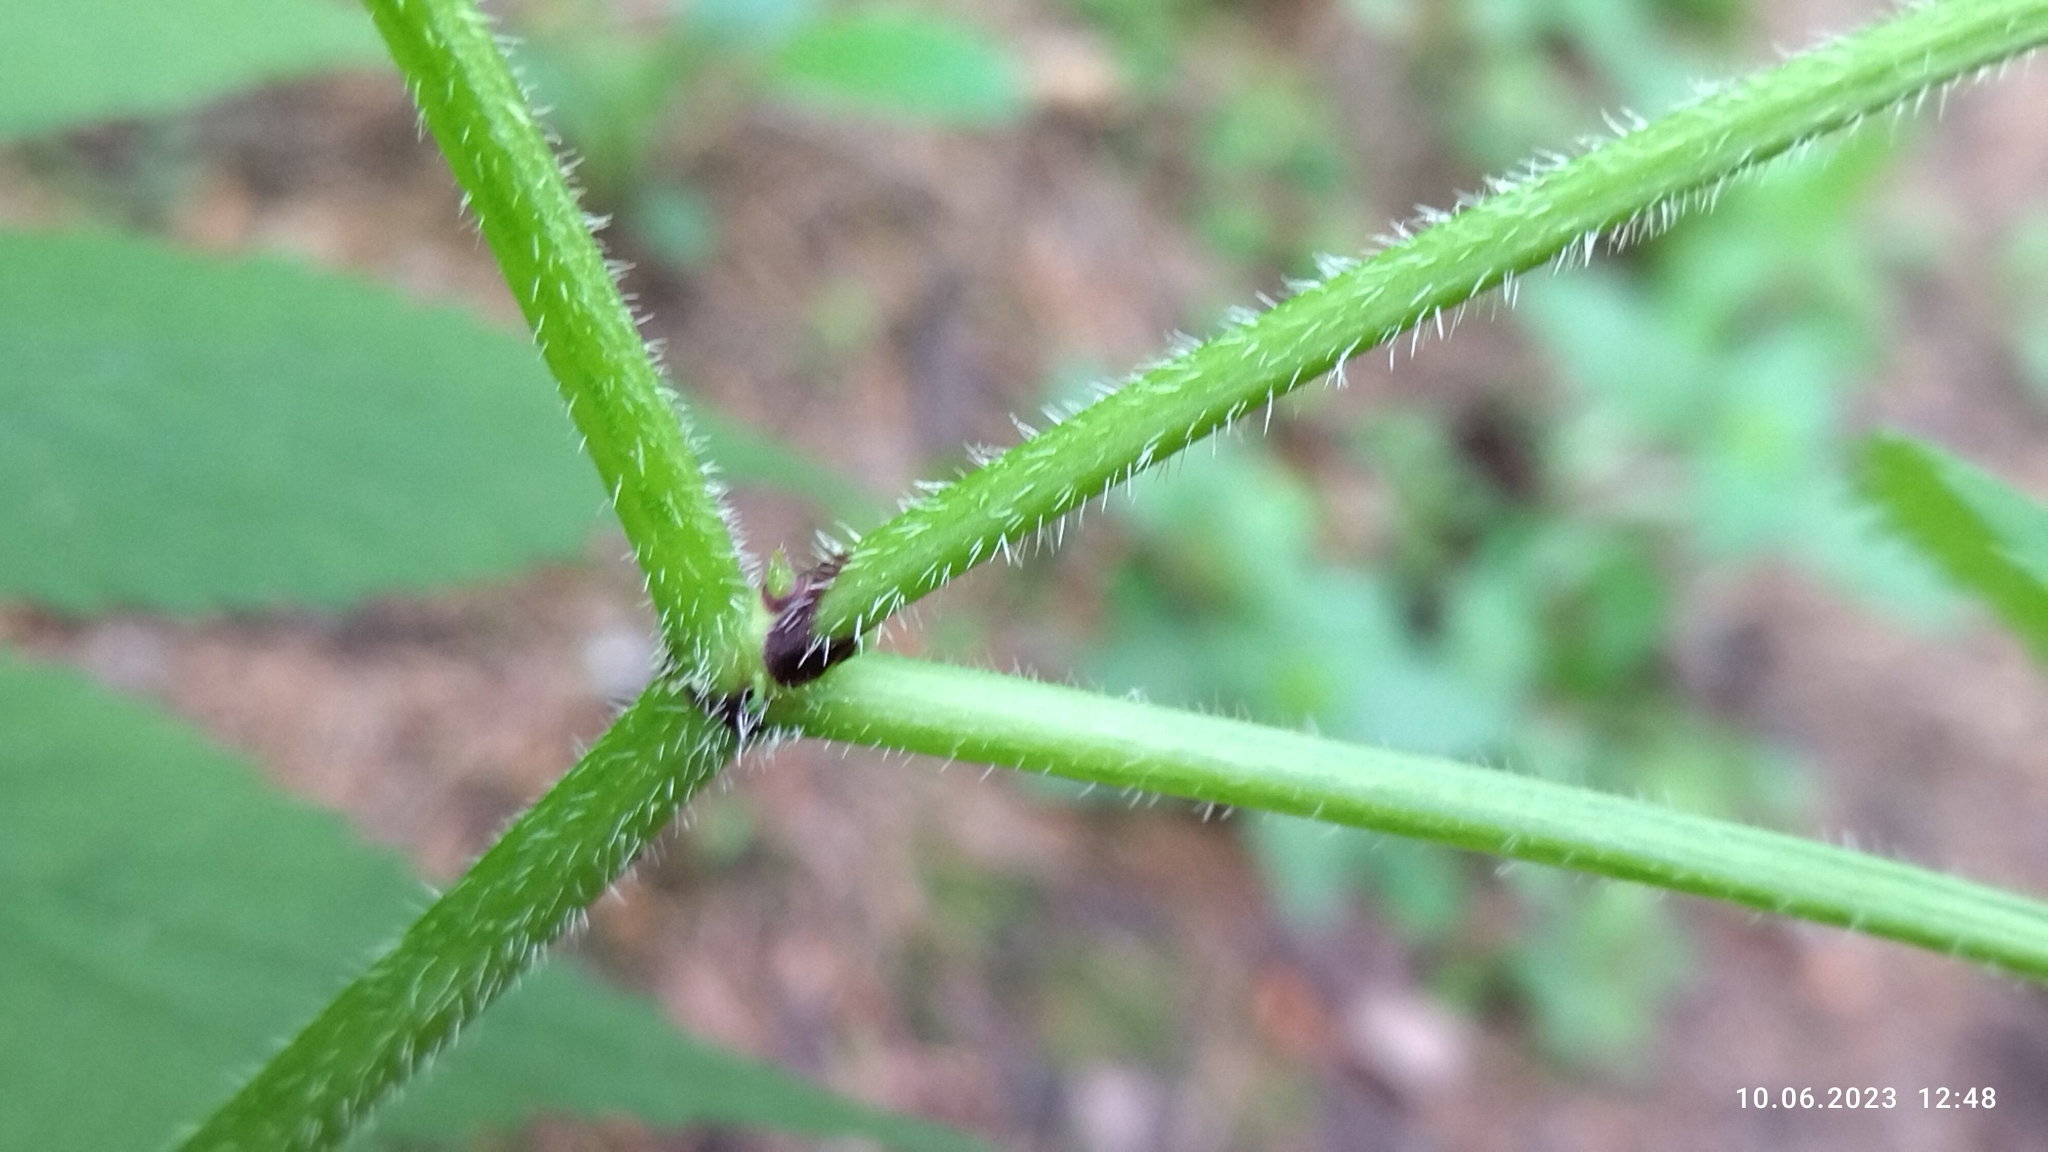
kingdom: Plantae
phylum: Tracheophyta
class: Magnoliopsida
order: Dipsacales
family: Viburnaceae
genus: Sambucus
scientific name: Sambucus racemosa
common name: Red-berried elder
